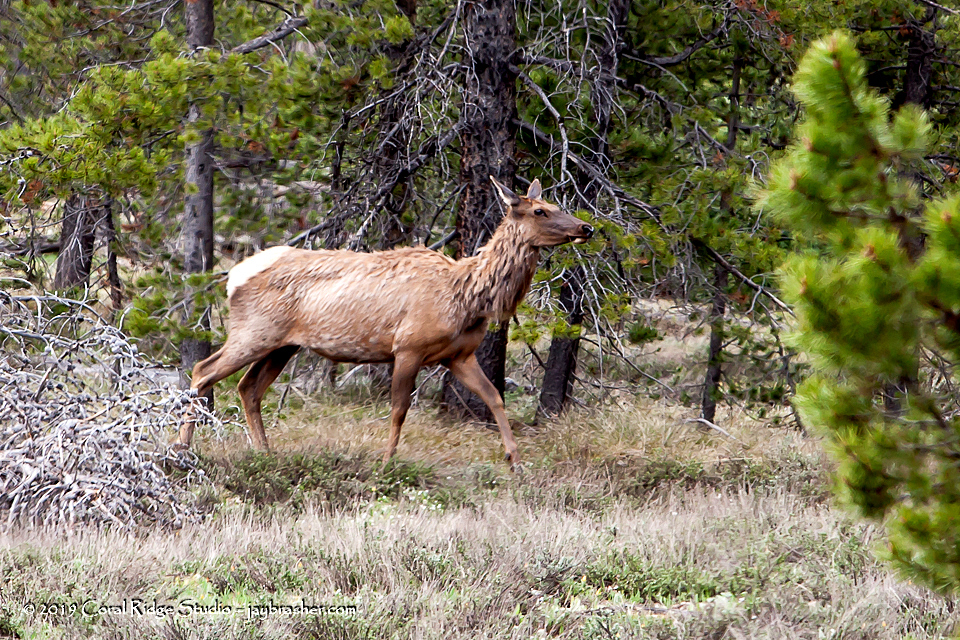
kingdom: Animalia
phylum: Chordata
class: Mammalia
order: Artiodactyla
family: Cervidae
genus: Cervus
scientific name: Cervus elaphus
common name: Red deer
